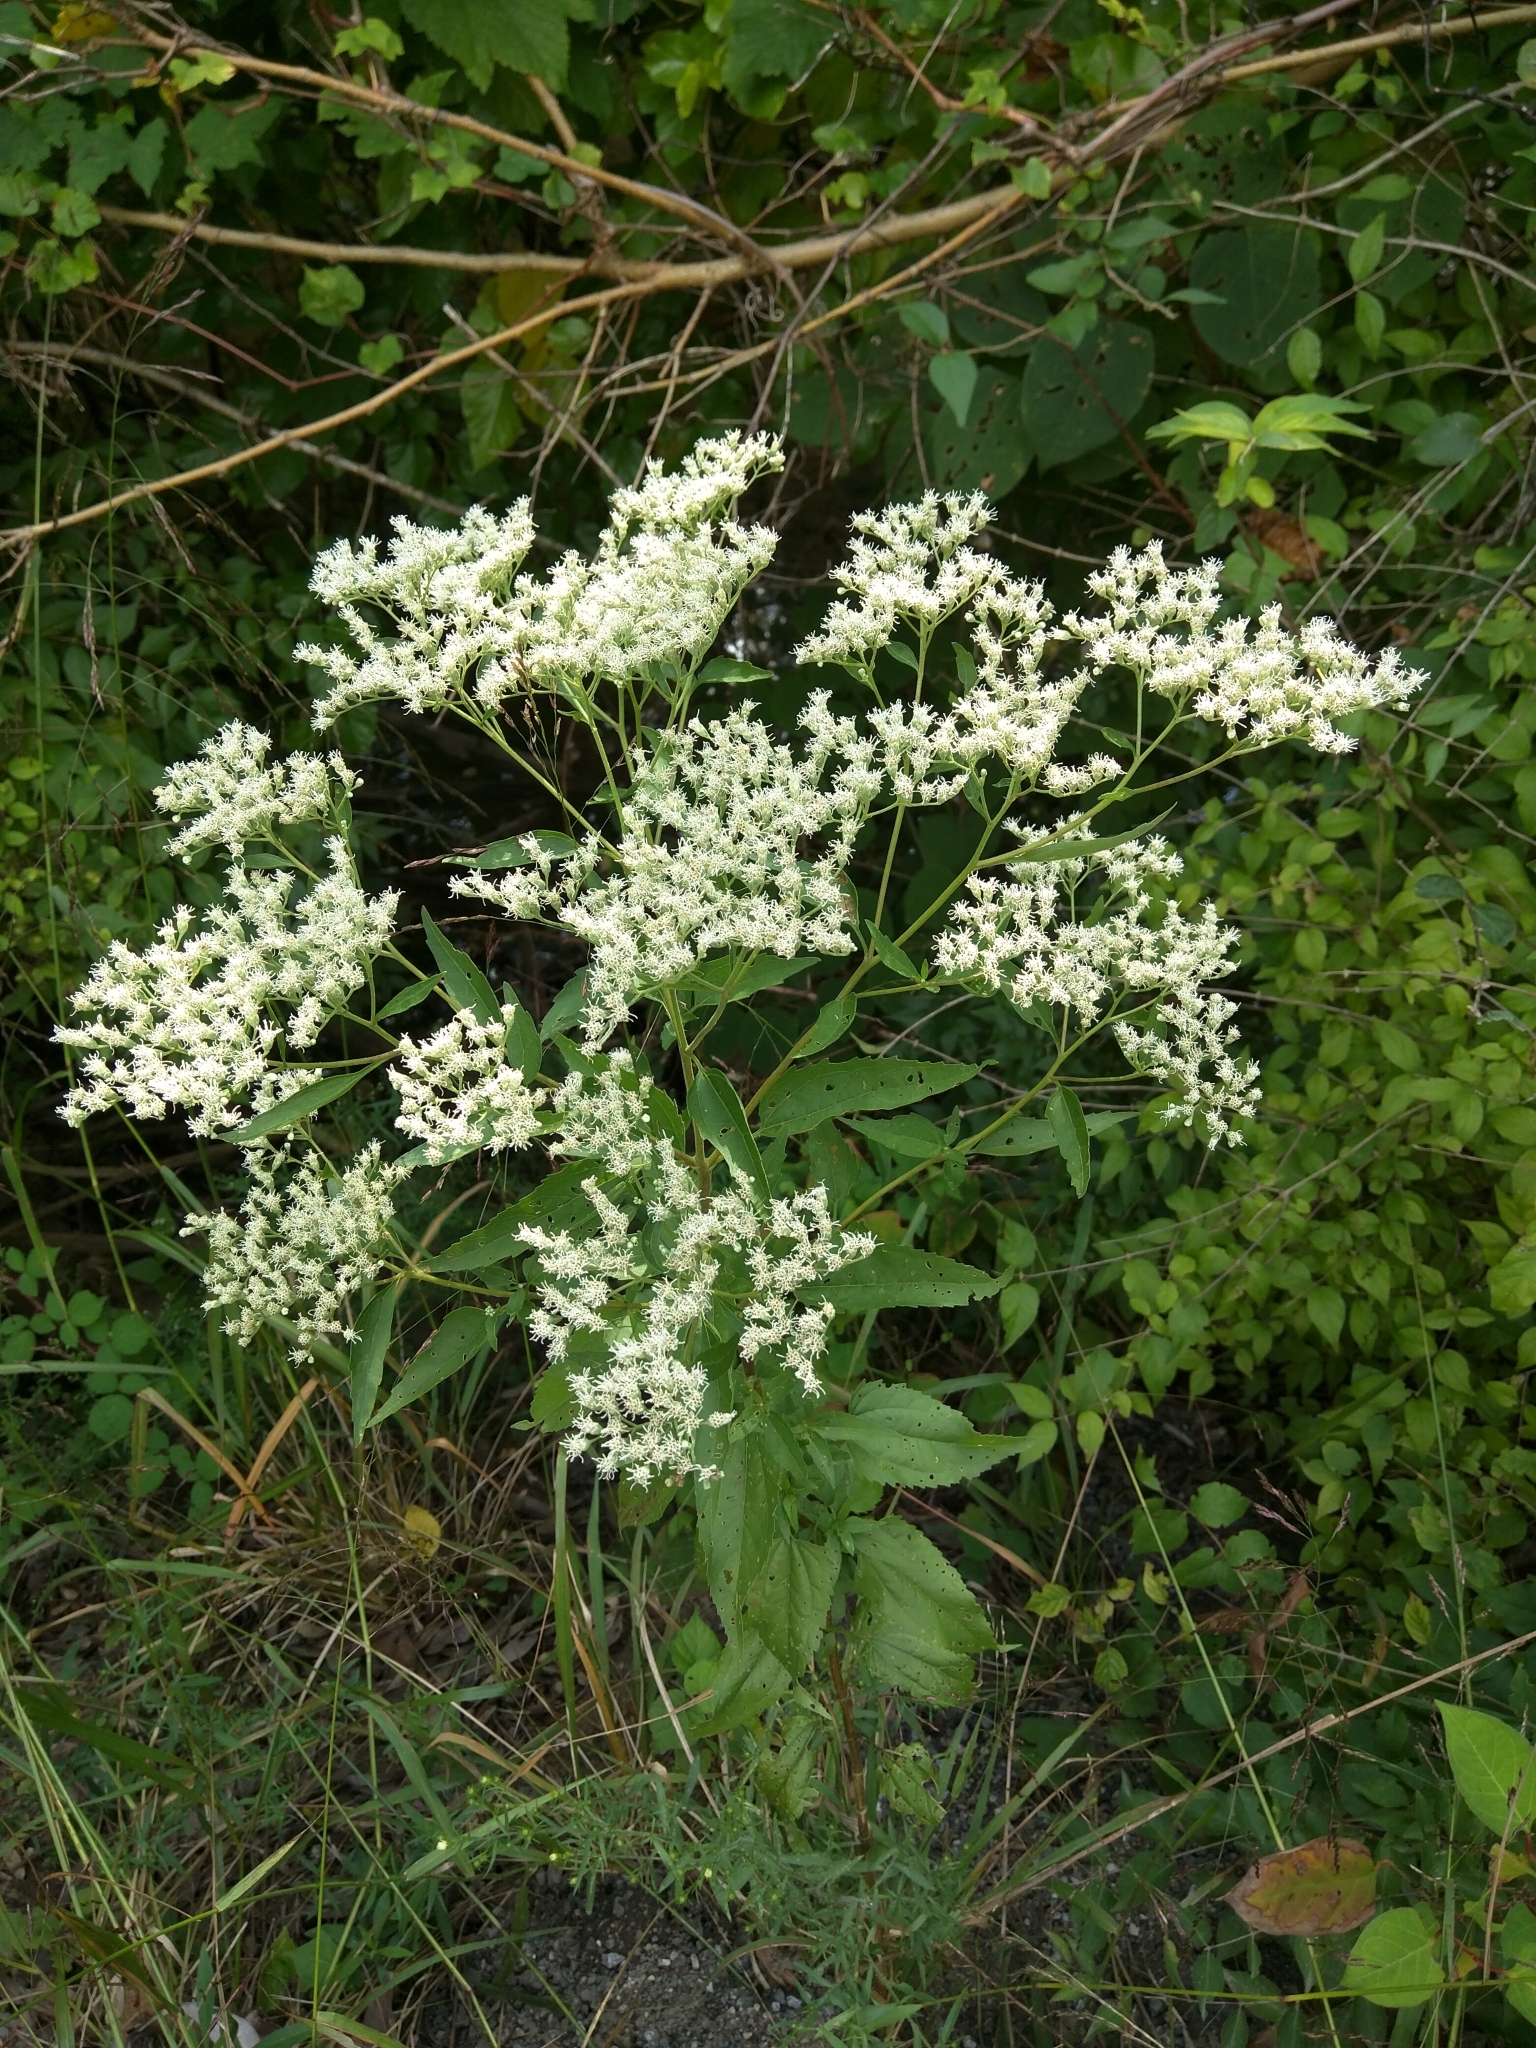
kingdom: Plantae
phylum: Tracheophyta
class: Magnoliopsida
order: Asterales
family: Asteraceae
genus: Eupatorium
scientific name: Eupatorium serotinum
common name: Late boneset
